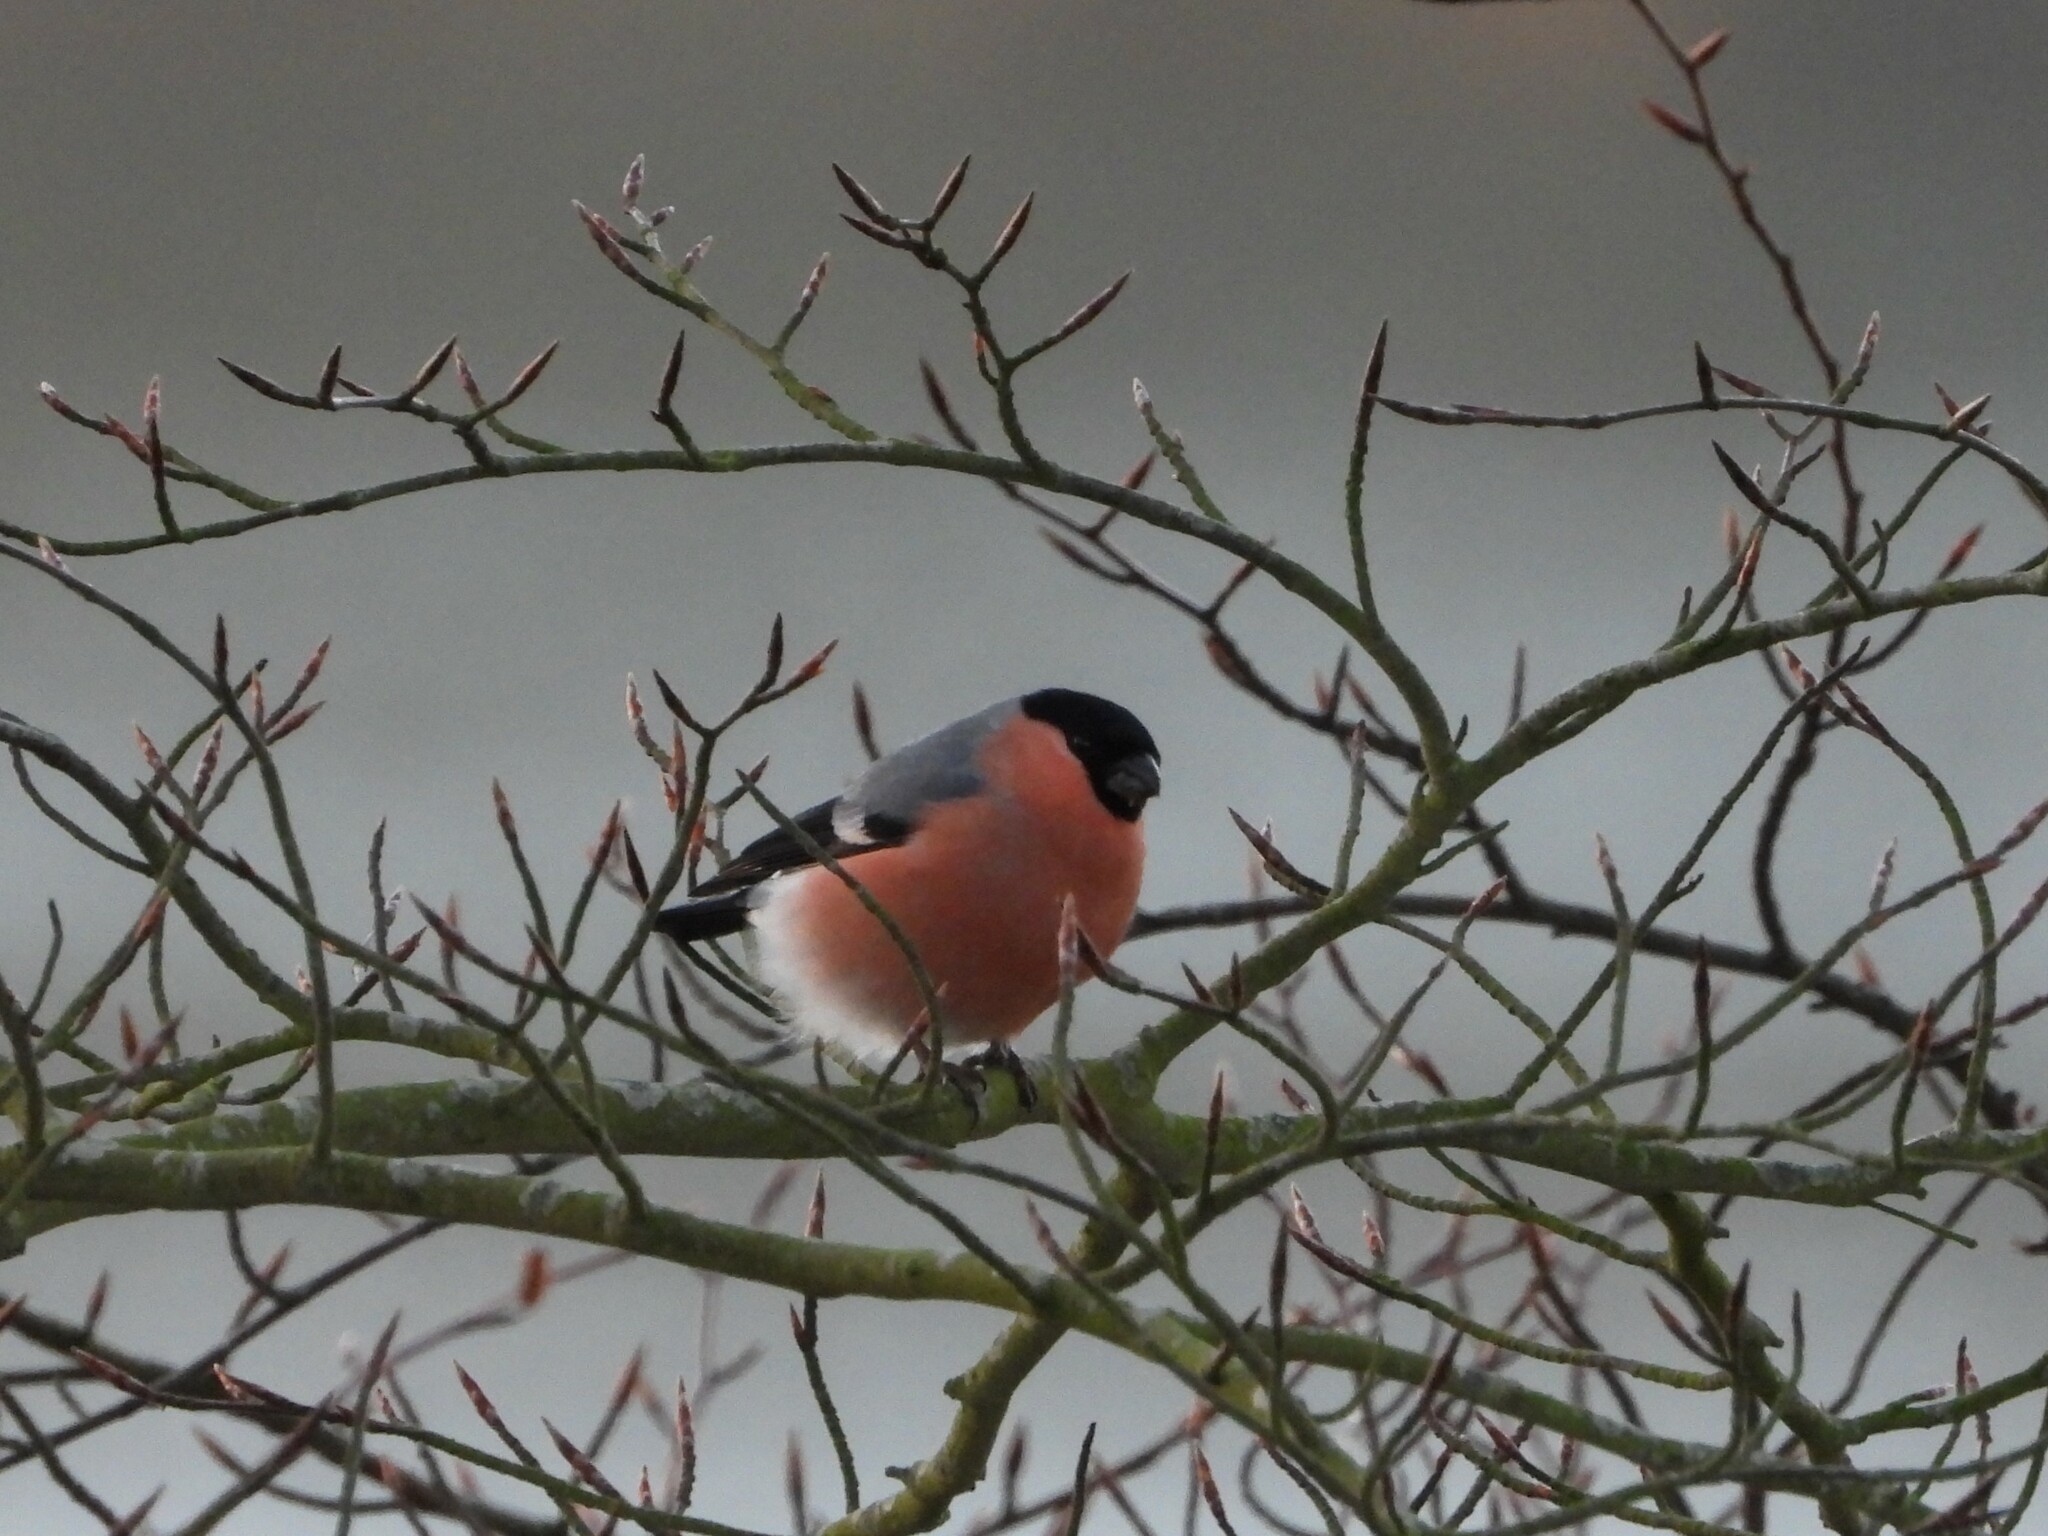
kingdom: Animalia
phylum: Chordata
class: Aves
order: Passeriformes
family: Fringillidae
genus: Pyrrhula
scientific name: Pyrrhula pyrrhula
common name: Eurasian bullfinch
